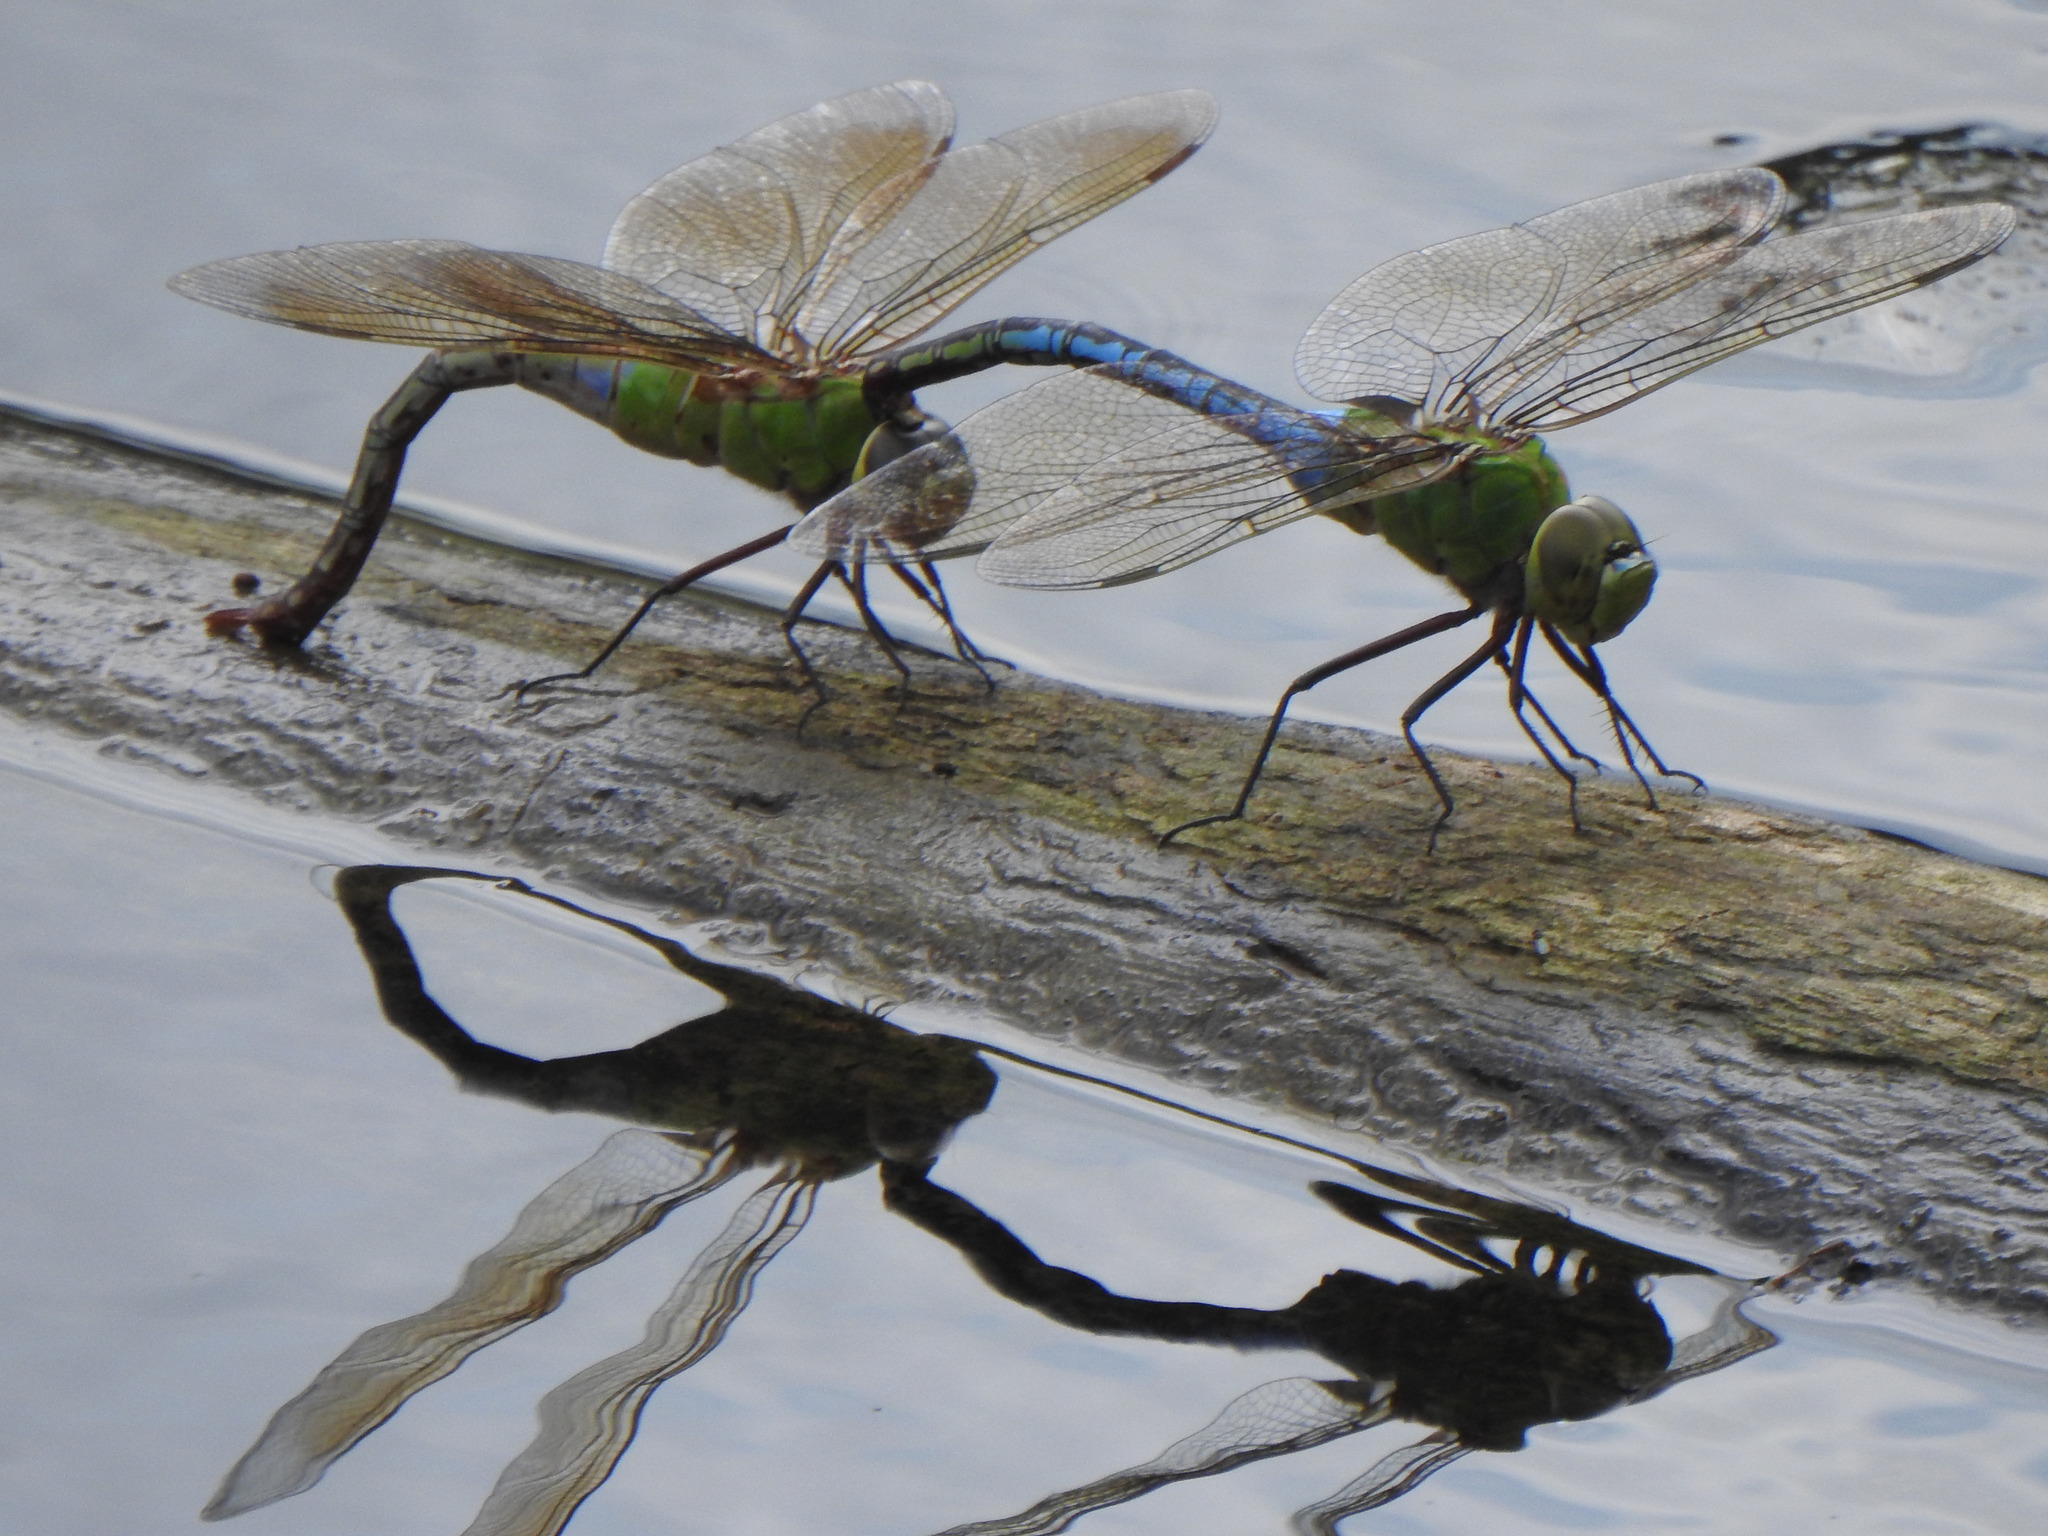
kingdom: Animalia
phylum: Arthropoda
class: Insecta
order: Odonata
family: Aeshnidae
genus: Anax
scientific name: Anax junius
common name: Common green darner
